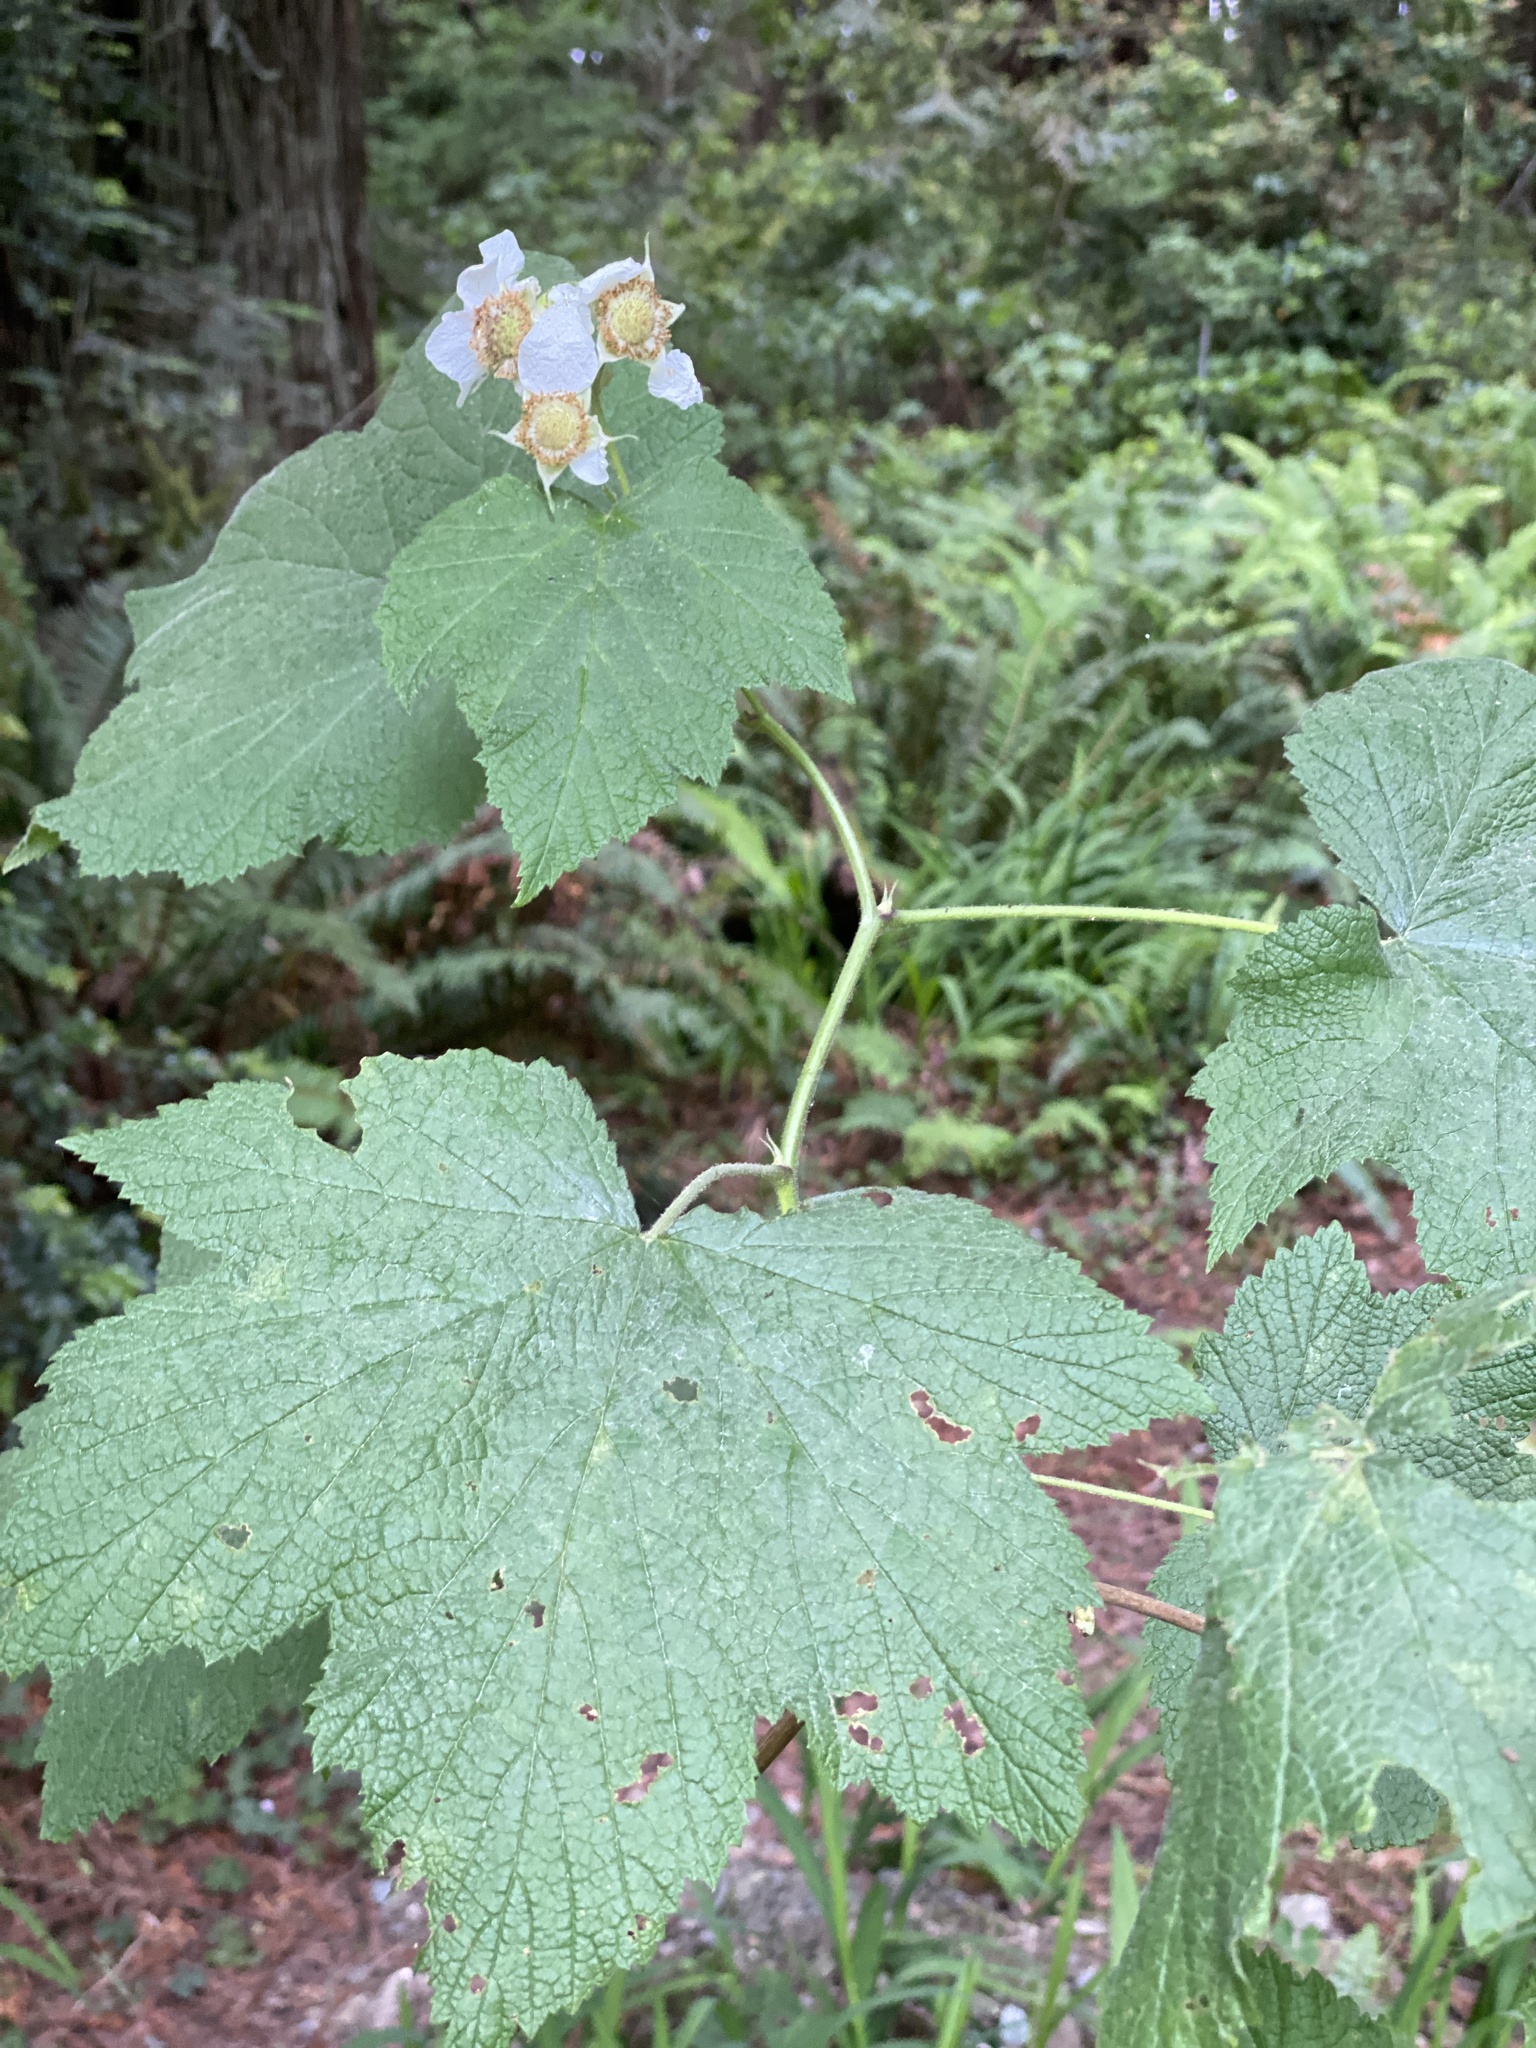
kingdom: Plantae
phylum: Tracheophyta
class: Magnoliopsida
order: Rosales
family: Rosaceae
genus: Rubus
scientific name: Rubus parviflorus
